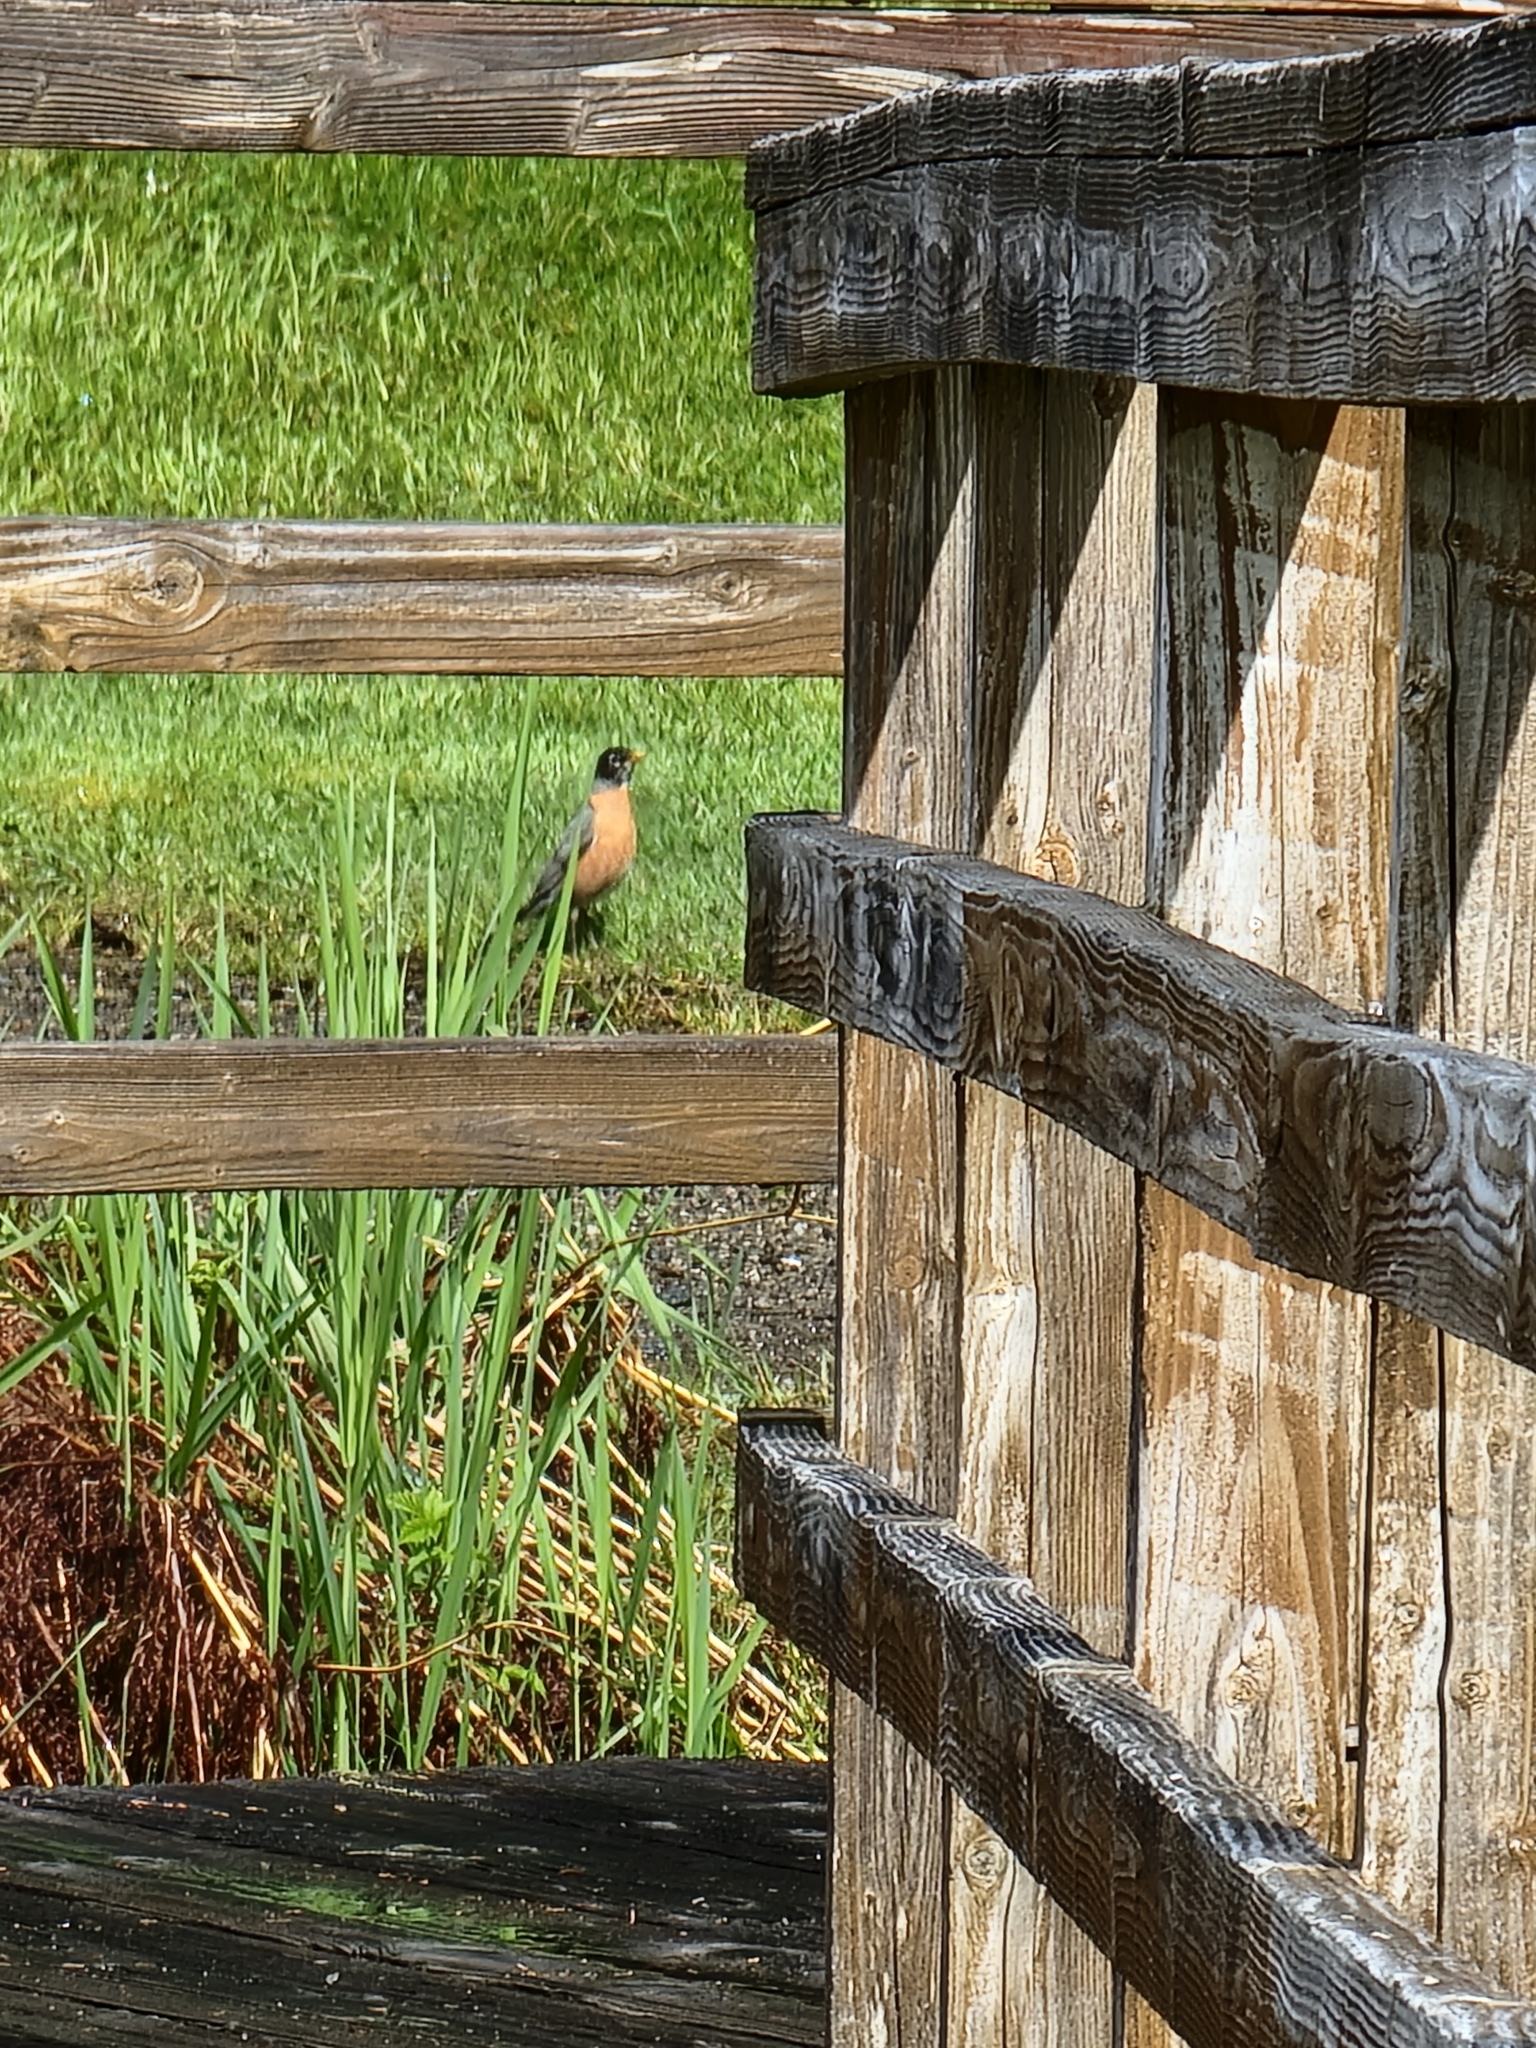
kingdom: Animalia
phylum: Chordata
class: Aves
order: Passeriformes
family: Turdidae
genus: Turdus
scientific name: Turdus migratorius
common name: American robin
